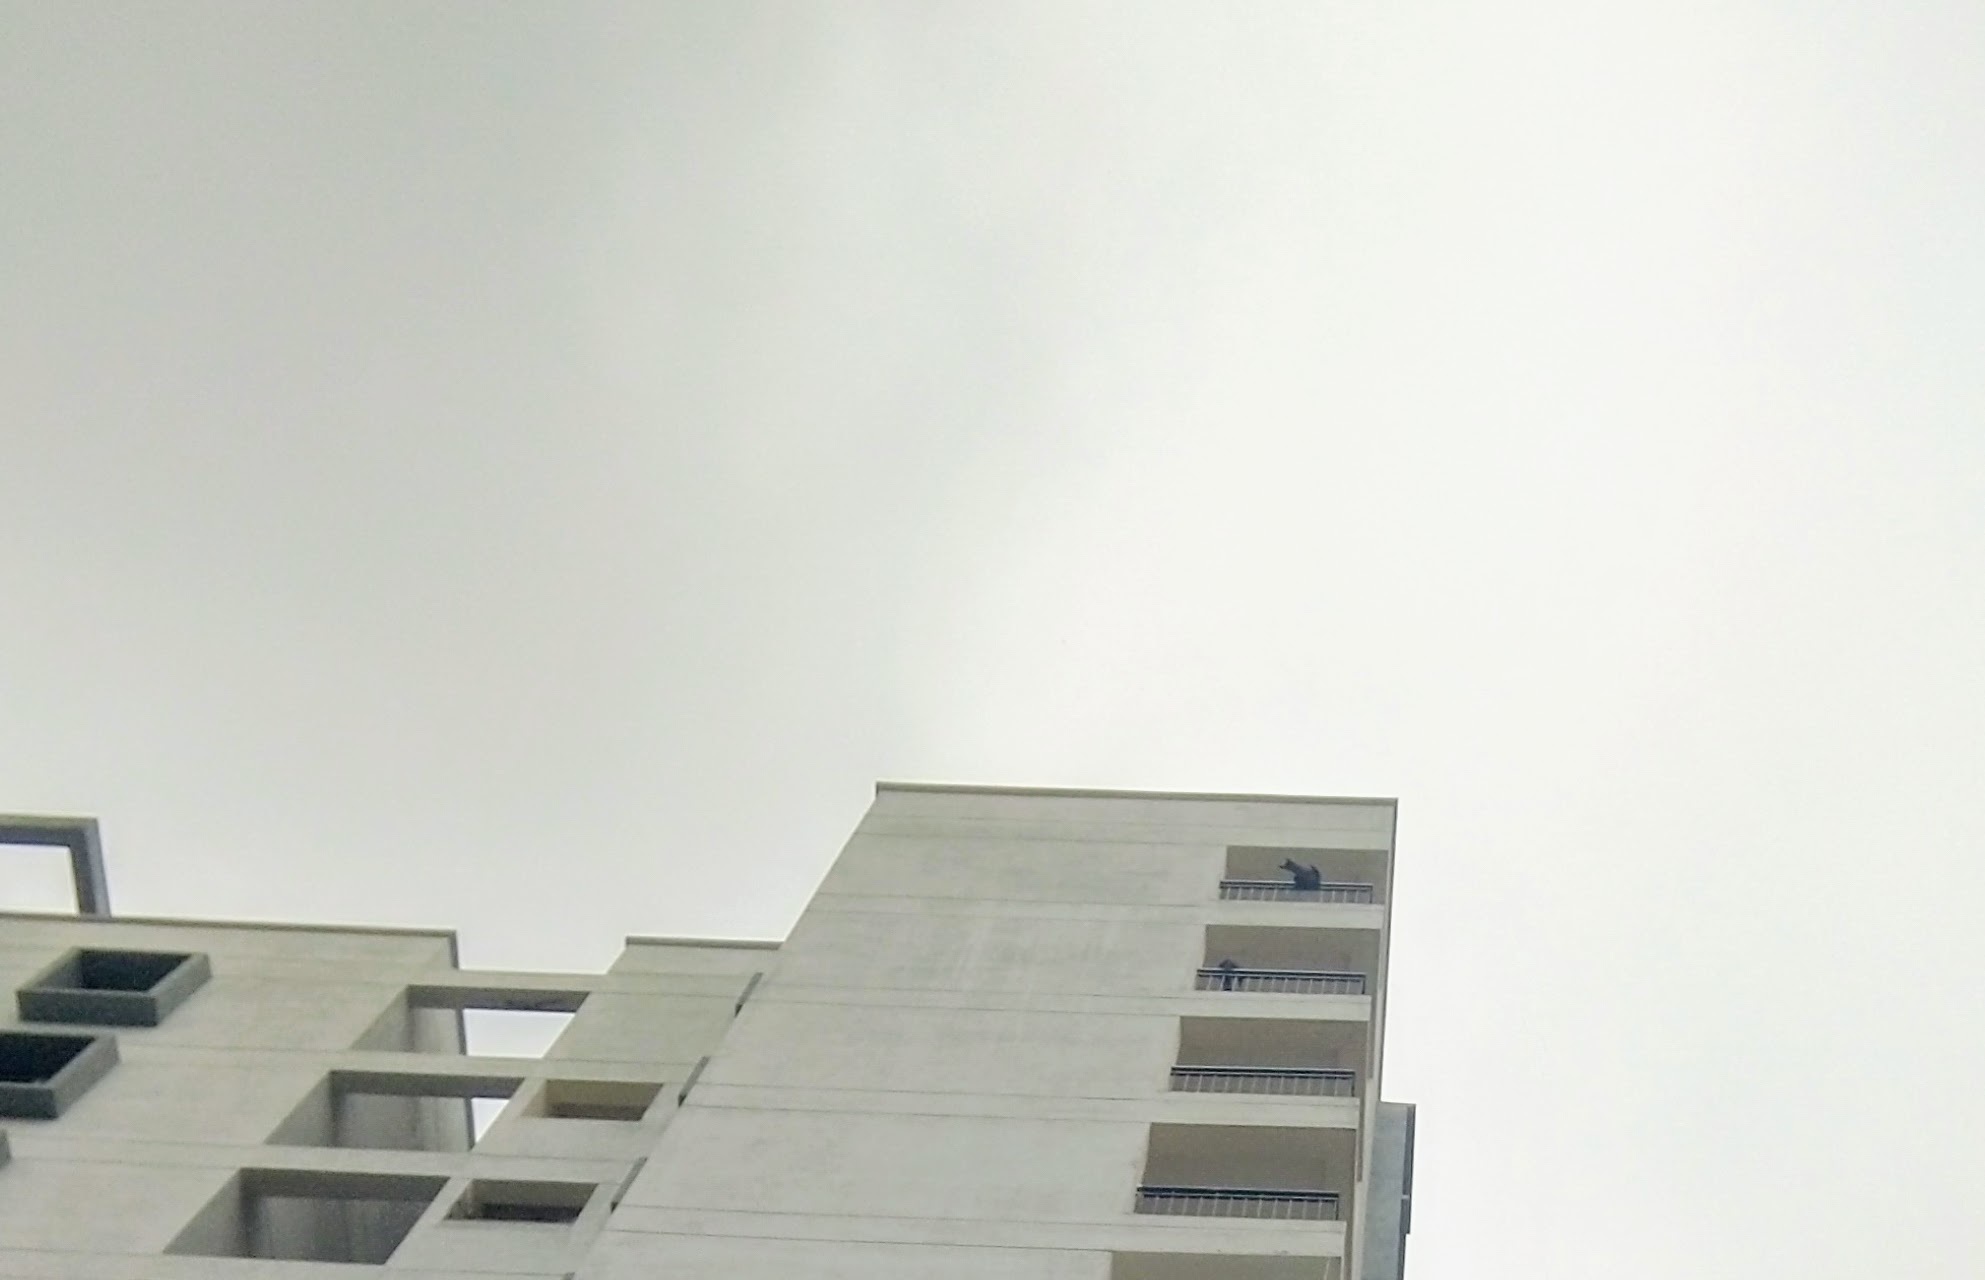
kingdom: Animalia
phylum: Chordata
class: Aves
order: Accipitriformes
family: Accipitridae
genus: Milvus
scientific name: Milvus migrans
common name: Black kite
